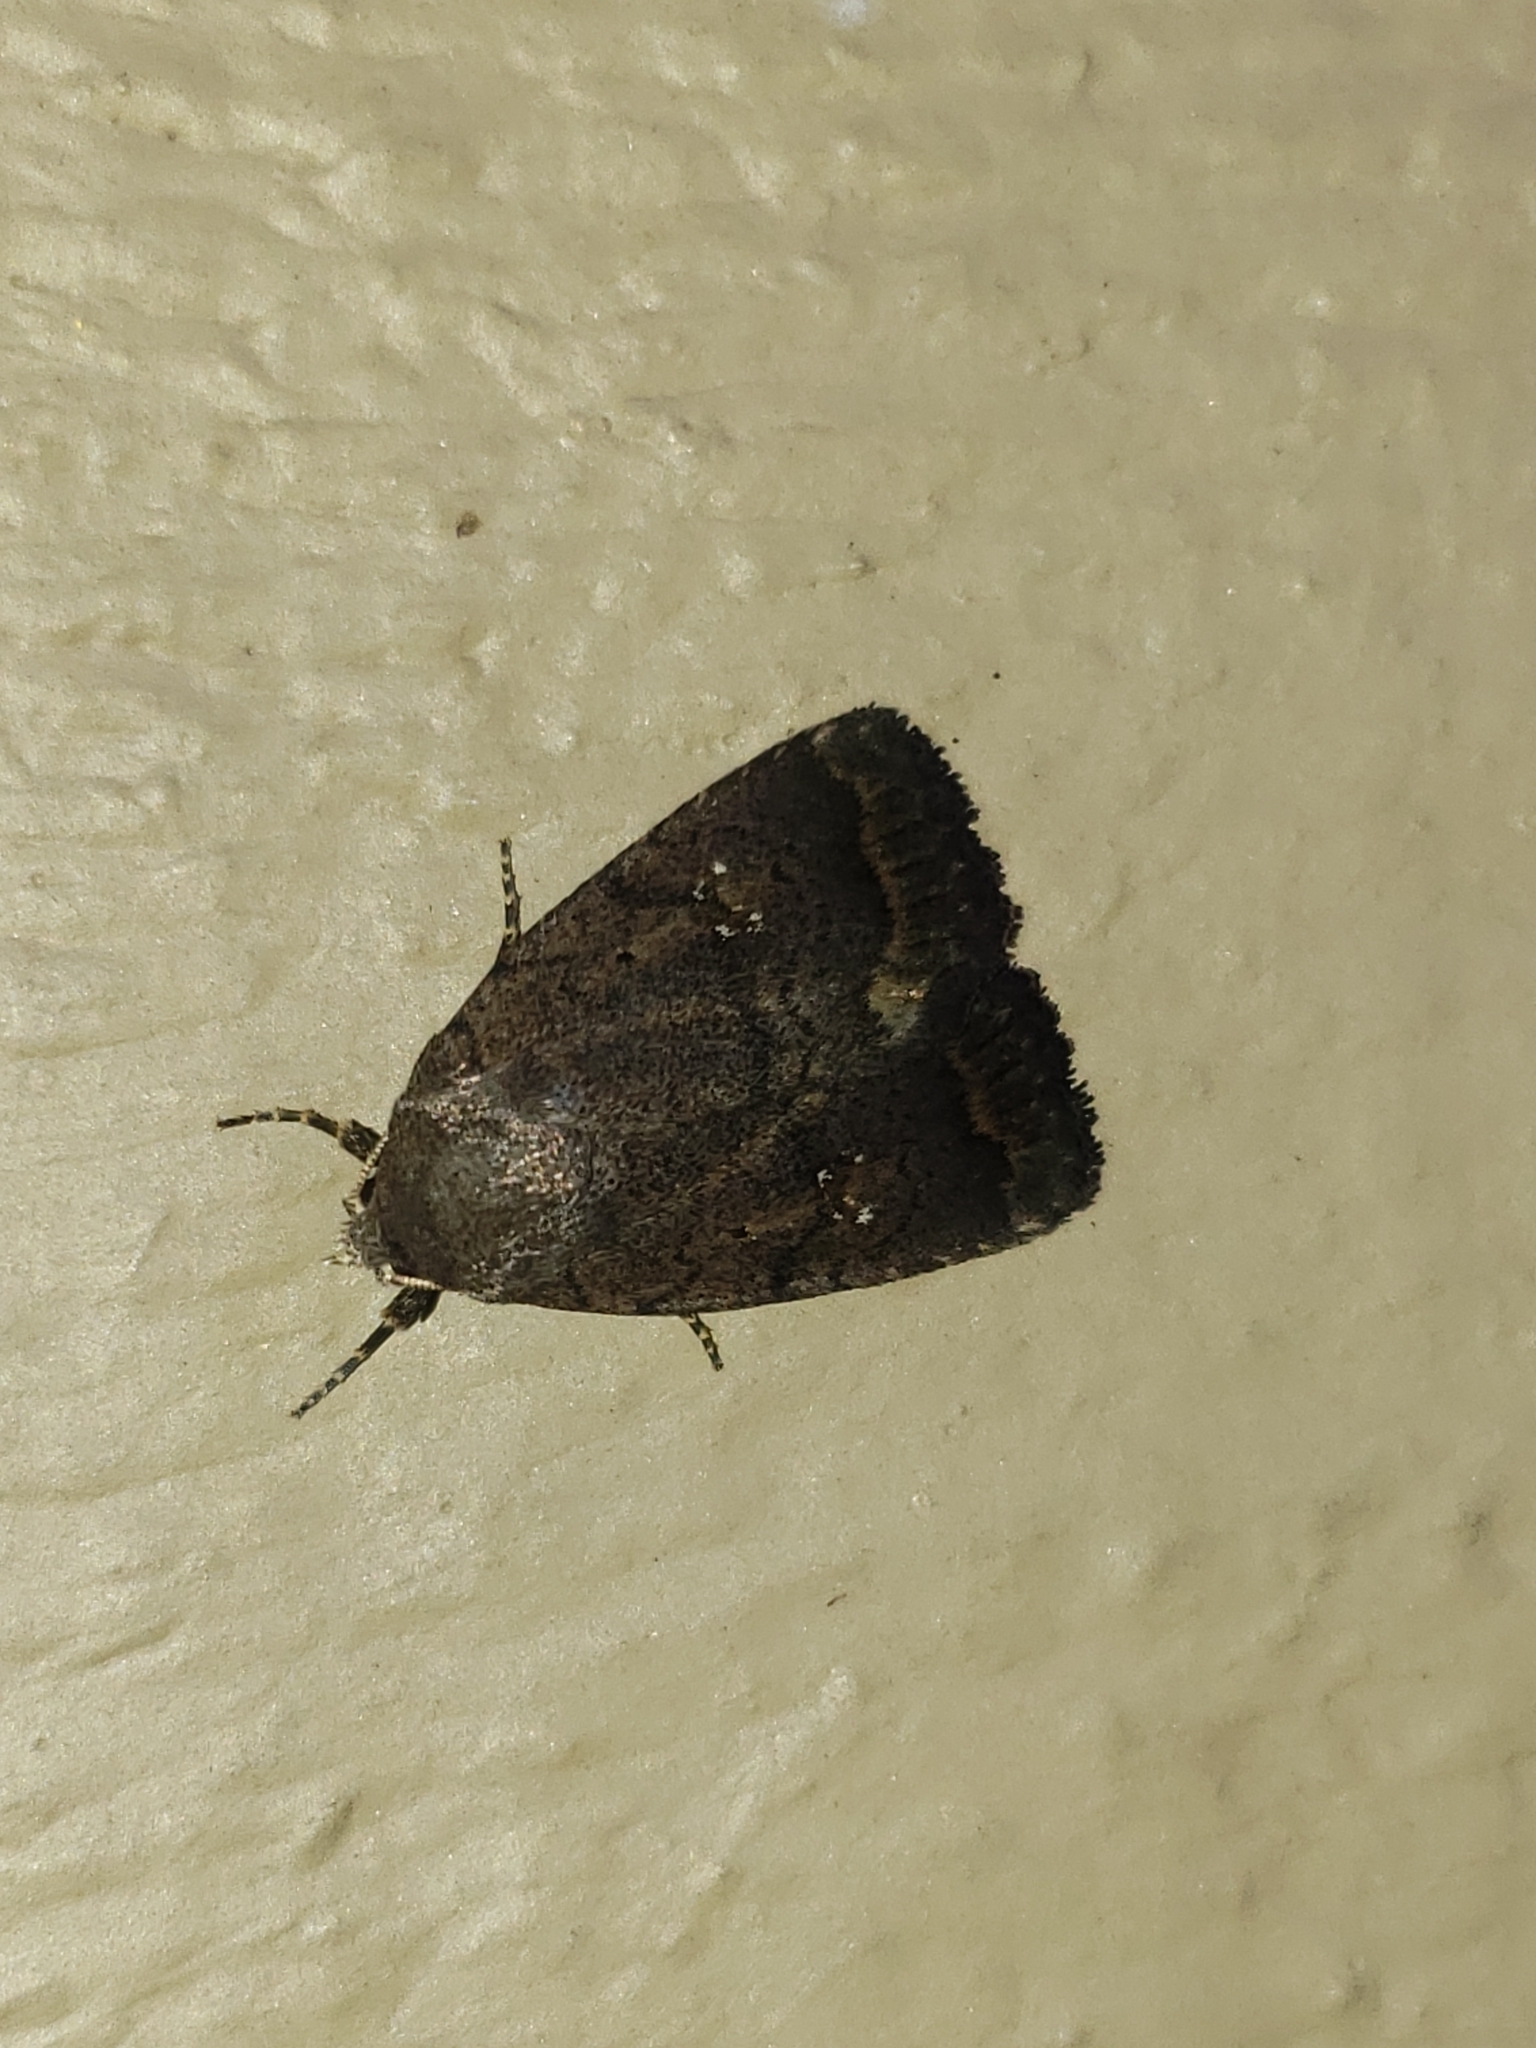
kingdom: Animalia
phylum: Arthropoda
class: Insecta
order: Lepidoptera
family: Noctuidae
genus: Athetis
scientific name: Athetis tarda
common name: Slowpoke moth
